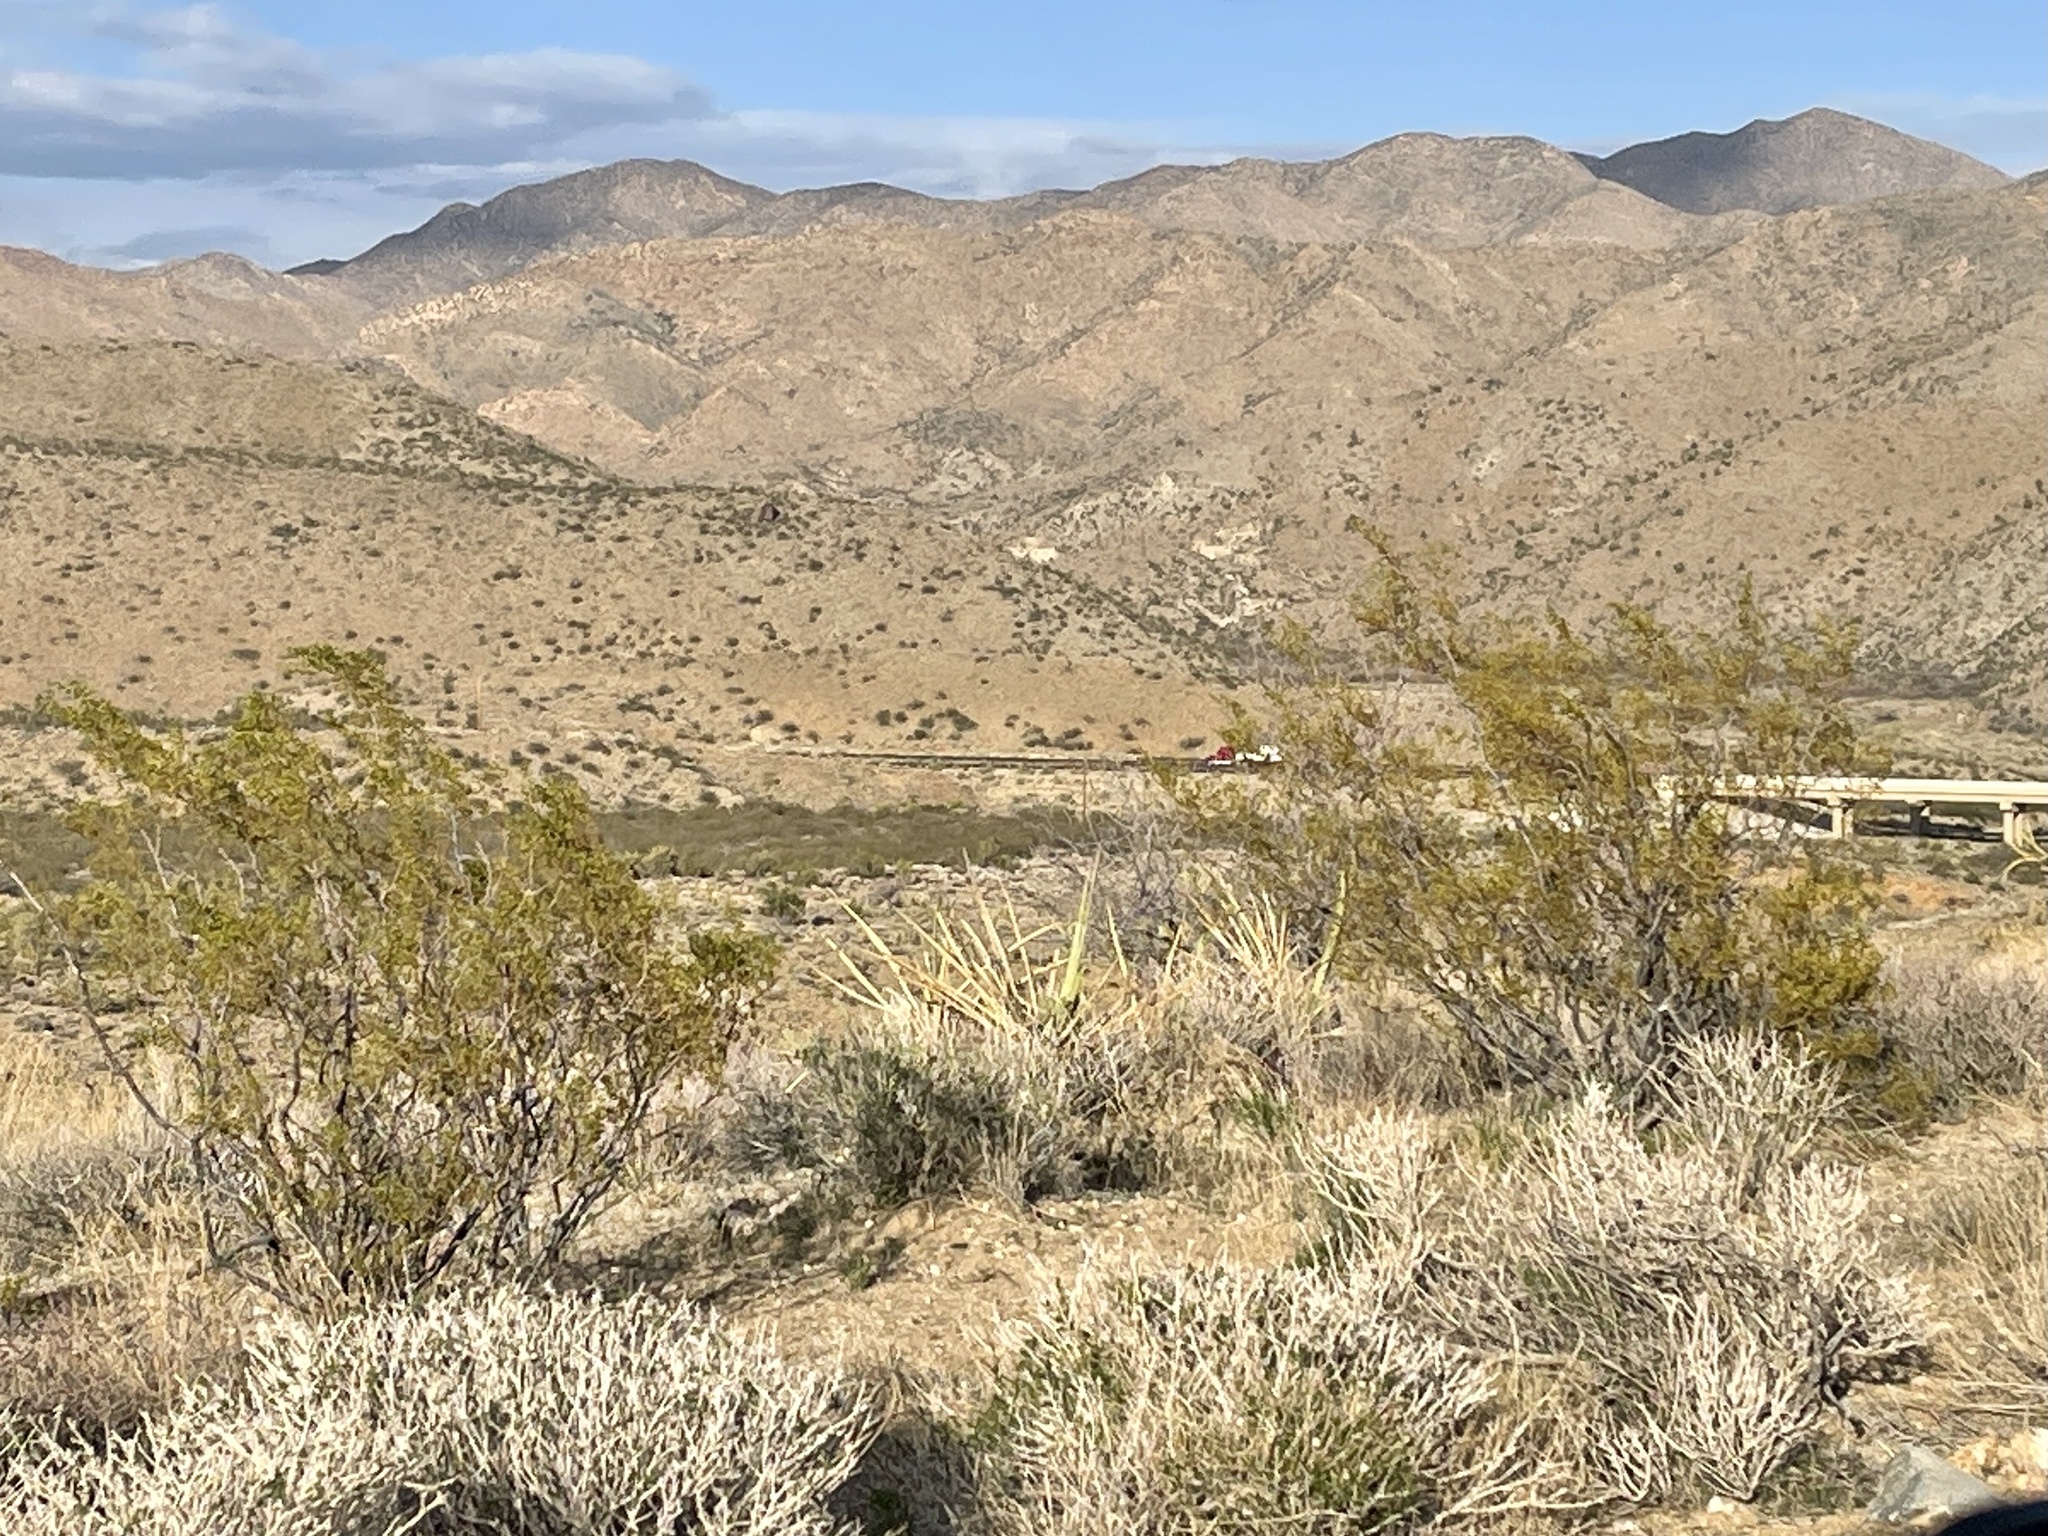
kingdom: Plantae
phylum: Tracheophyta
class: Magnoliopsida
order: Zygophyllales
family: Zygophyllaceae
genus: Larrea
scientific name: Larrea tridentata
